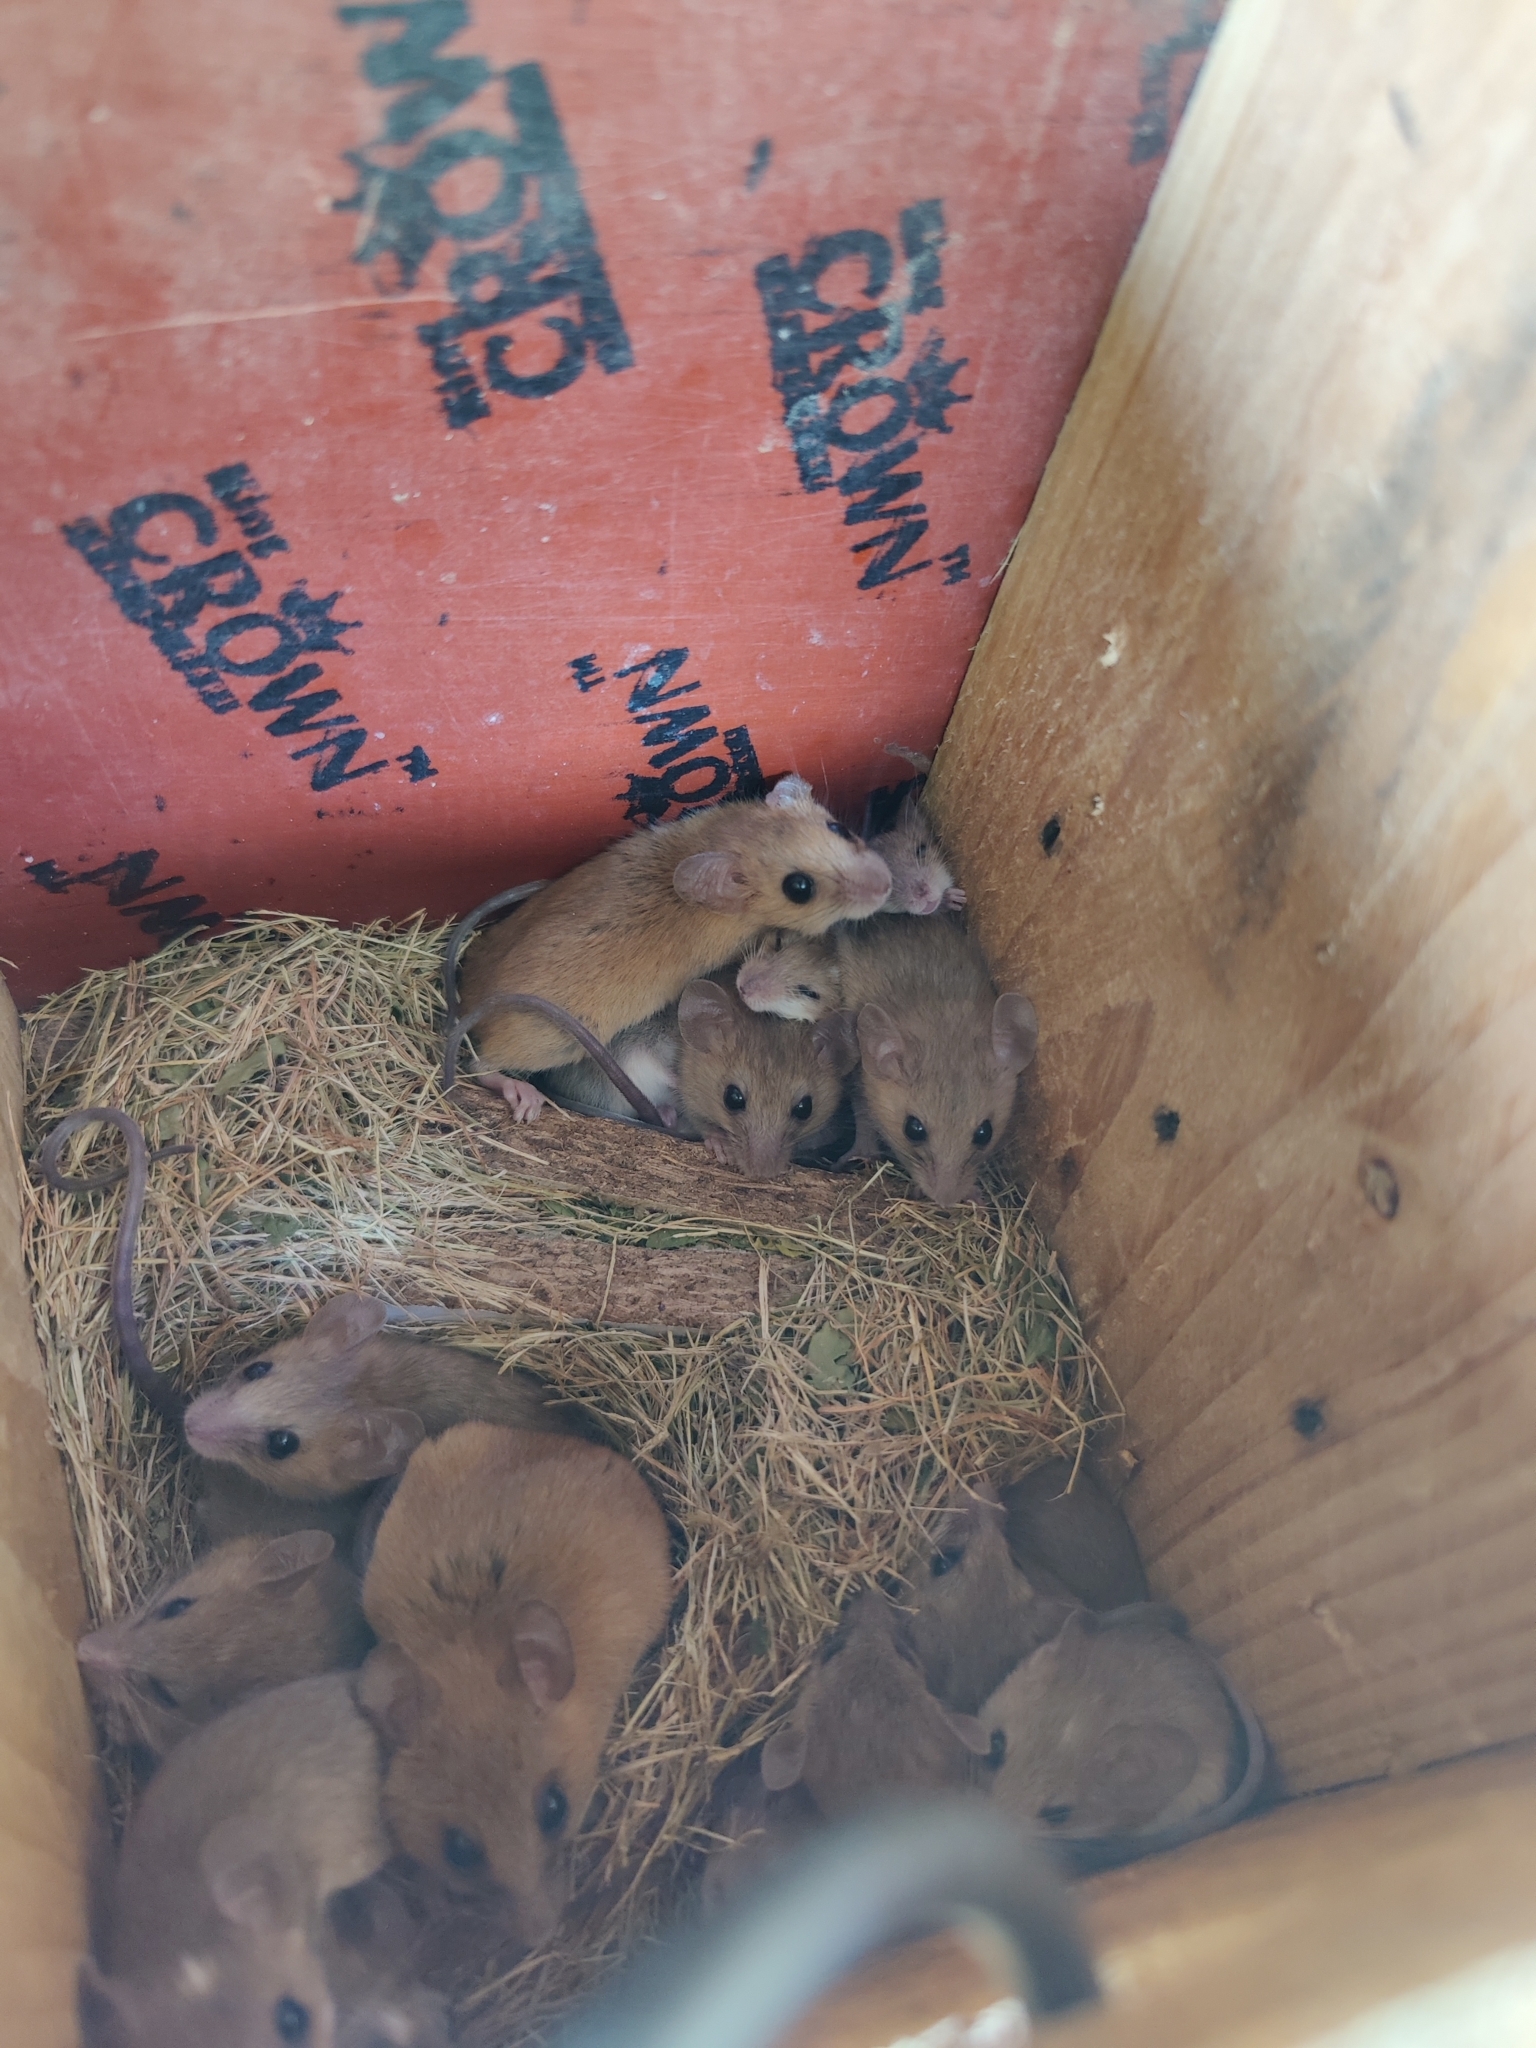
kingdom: Animalia
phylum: Chordata
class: Mammalia
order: Rodentia
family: Muridae
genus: Vandeleuria
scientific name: Vandeleuria oleracea
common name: Indomalayan vandeleuria
